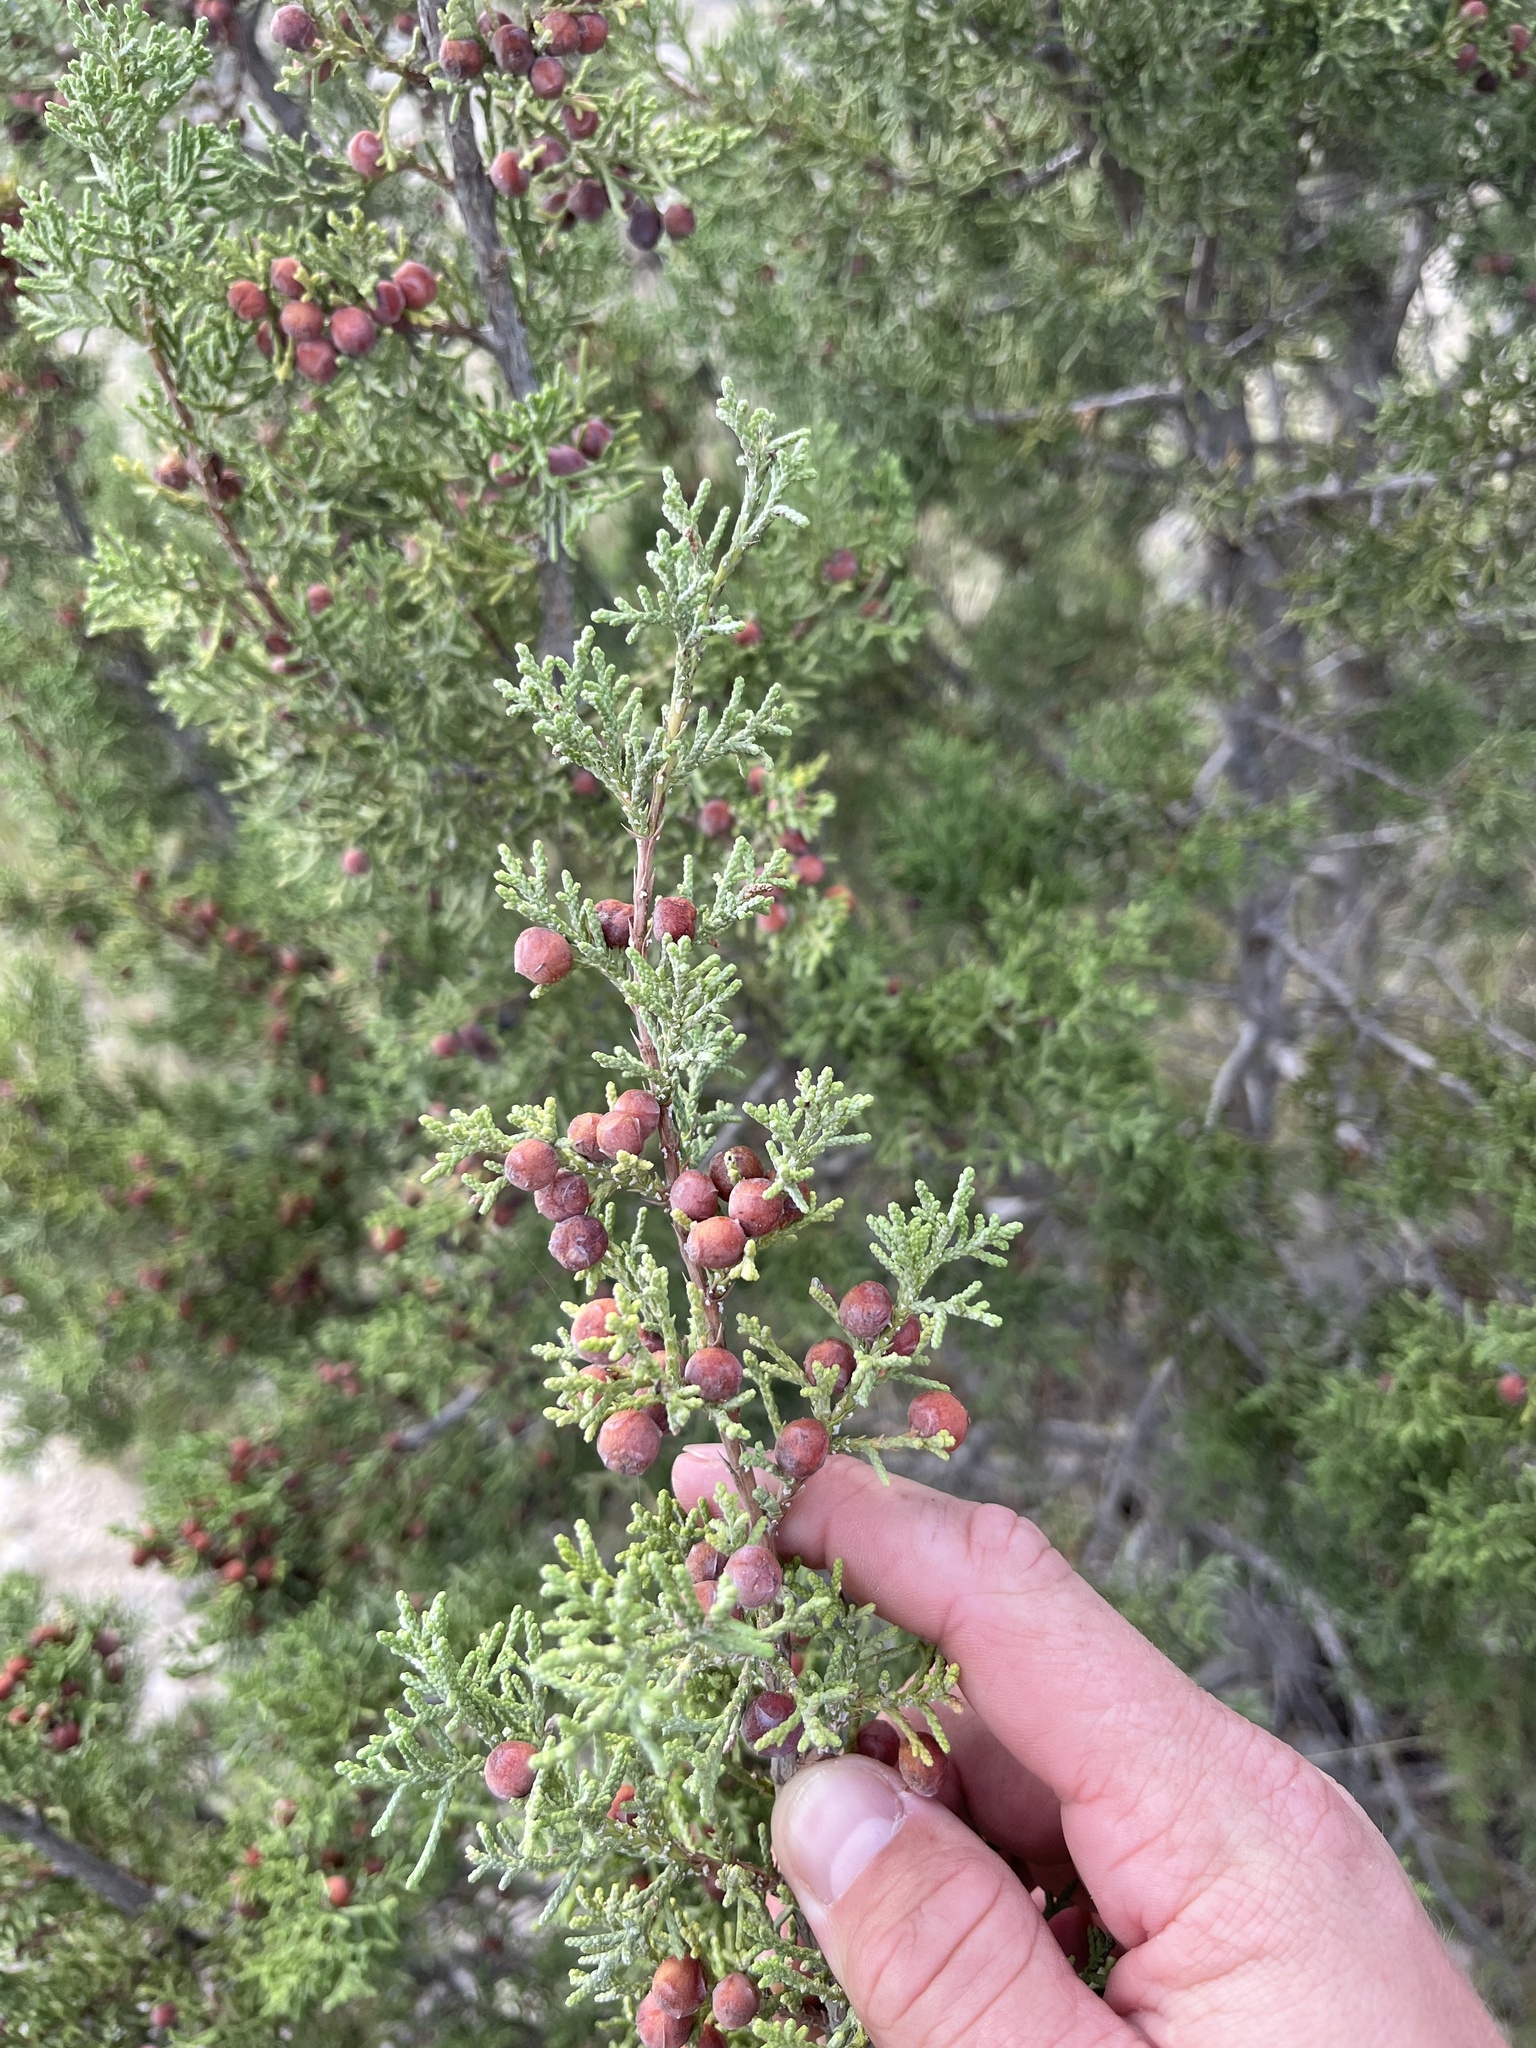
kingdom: Plantae
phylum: Tracheophyta
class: Pinopsida
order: Pinales
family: Cupressaceae
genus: Juniperus
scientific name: Juniperus pinchotii
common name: Pinchot juniper
